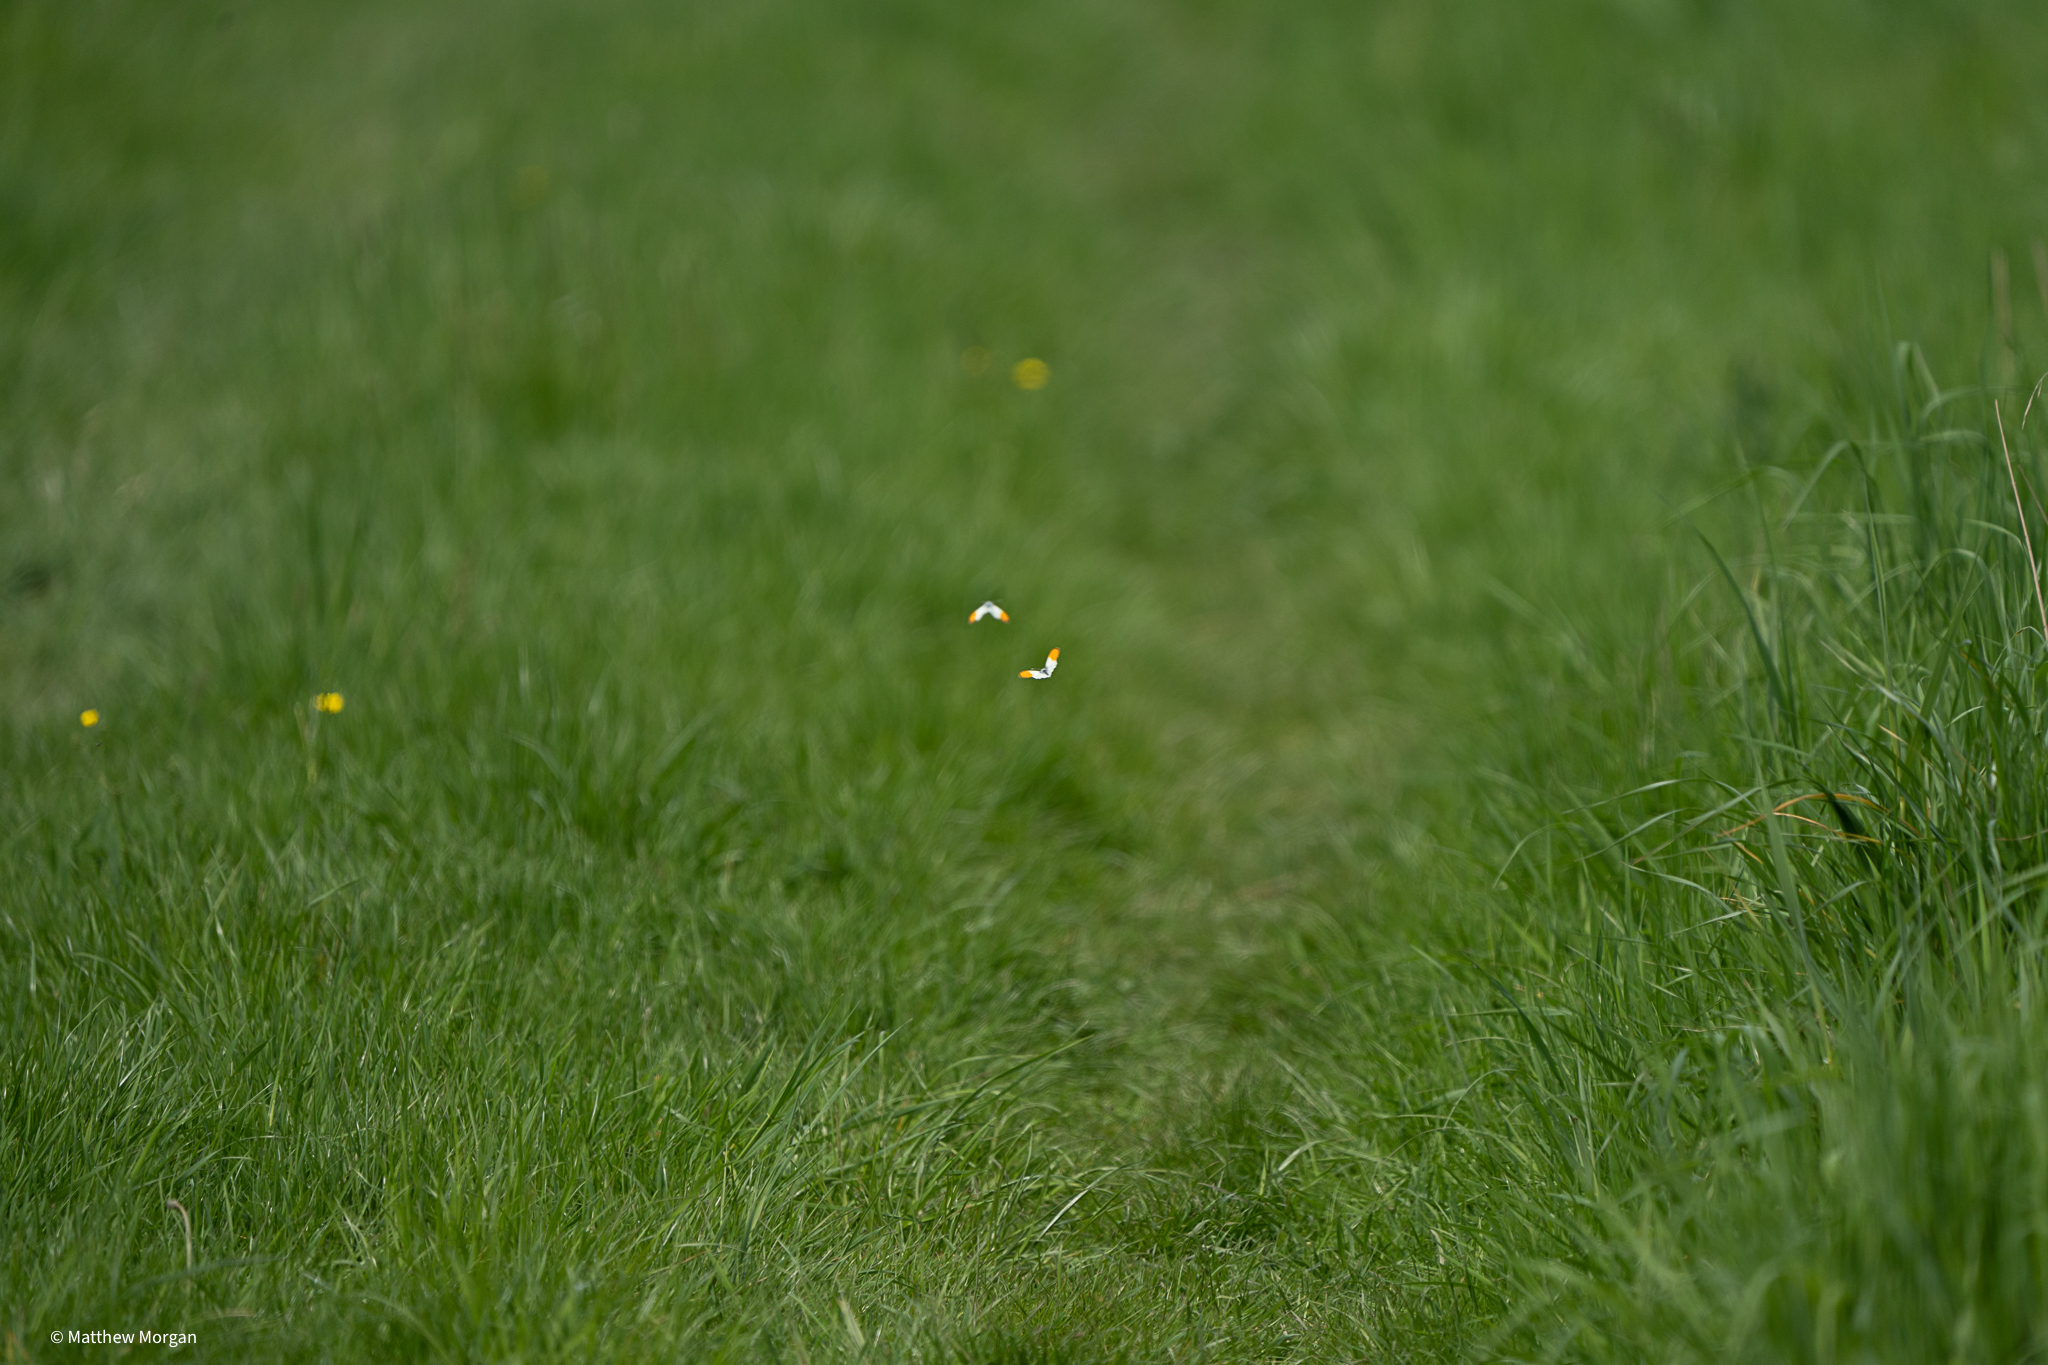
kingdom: Animalia
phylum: Arthropoda
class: Insecta
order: Lepidoptera
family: Pieridae
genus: Anthocharis
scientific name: Anthocharis cardamines
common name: Orange-tip
